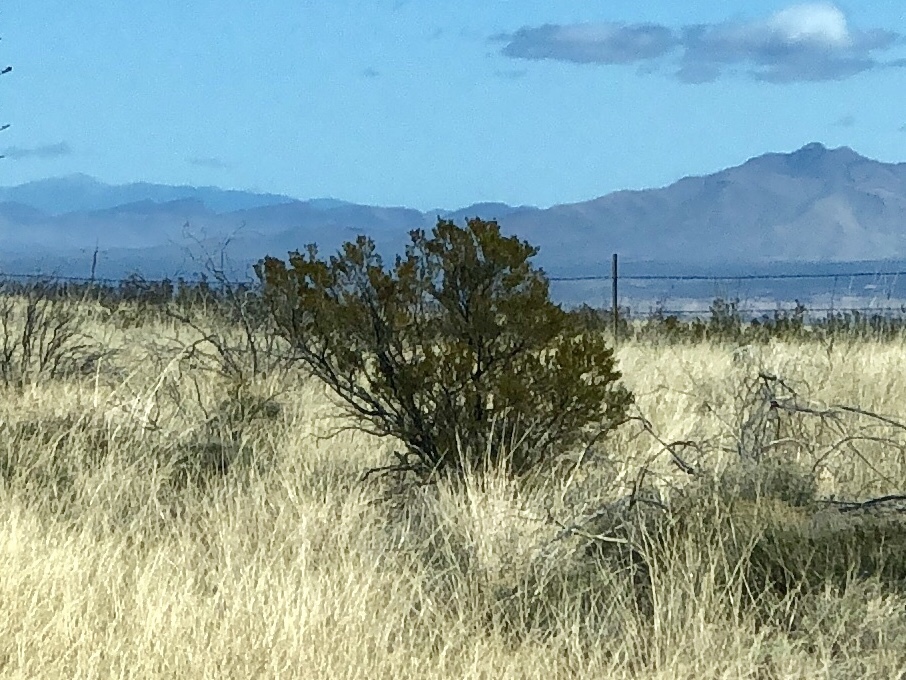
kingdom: Plantae
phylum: Tracheophyta
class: Magnoliopsida
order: Zygophyllales
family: Zygophyllaceae
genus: Larrea
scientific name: Larrea tridentata
